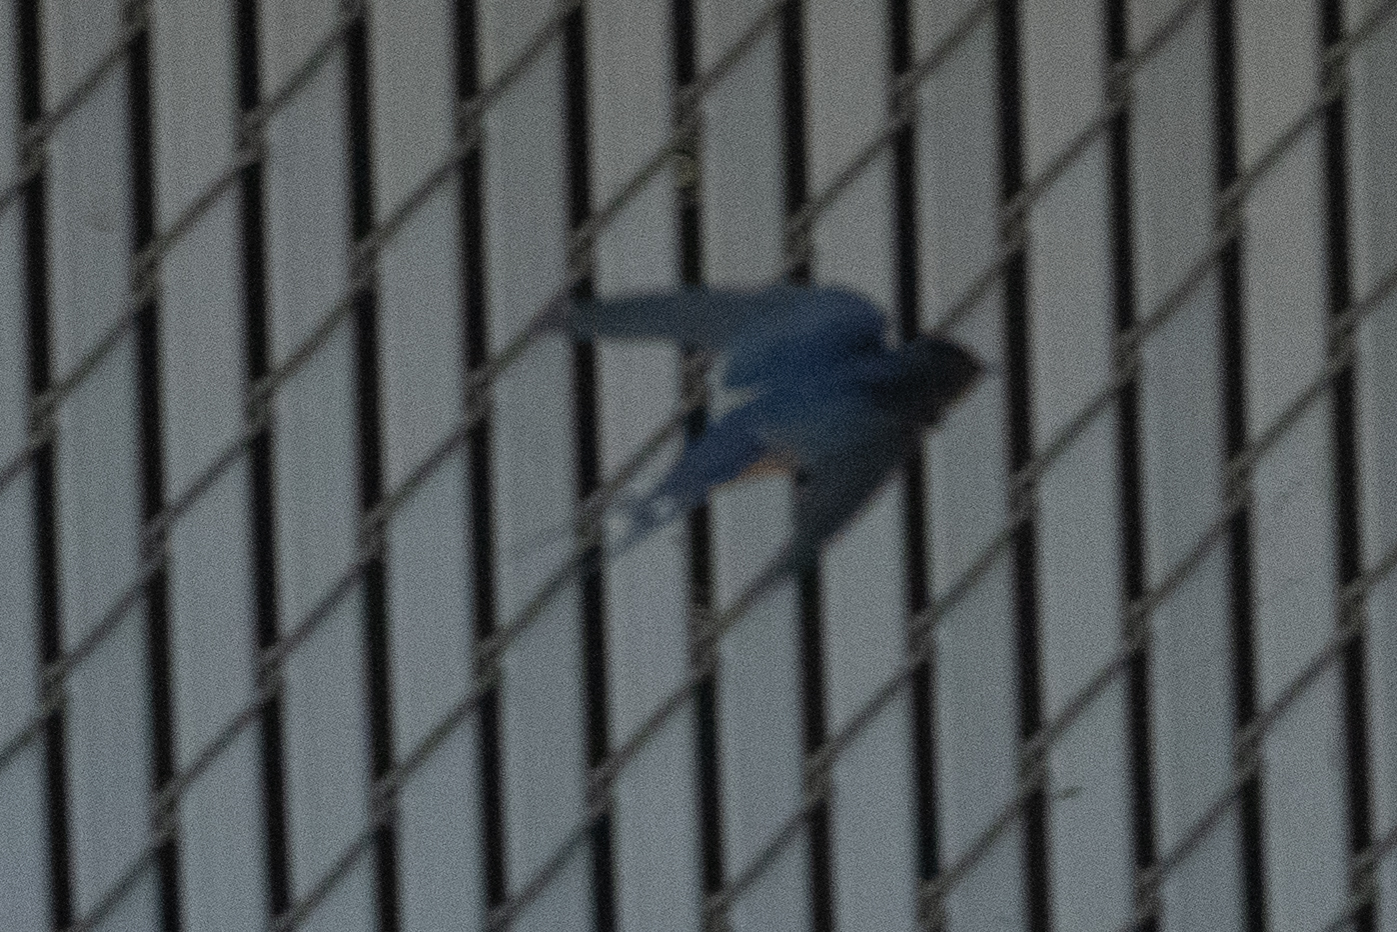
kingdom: Animalia
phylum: Chordata
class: Aves
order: Passeriformes
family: Hirundinidae
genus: Hirundo
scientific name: Hirundo rustica
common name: Barn swallow
